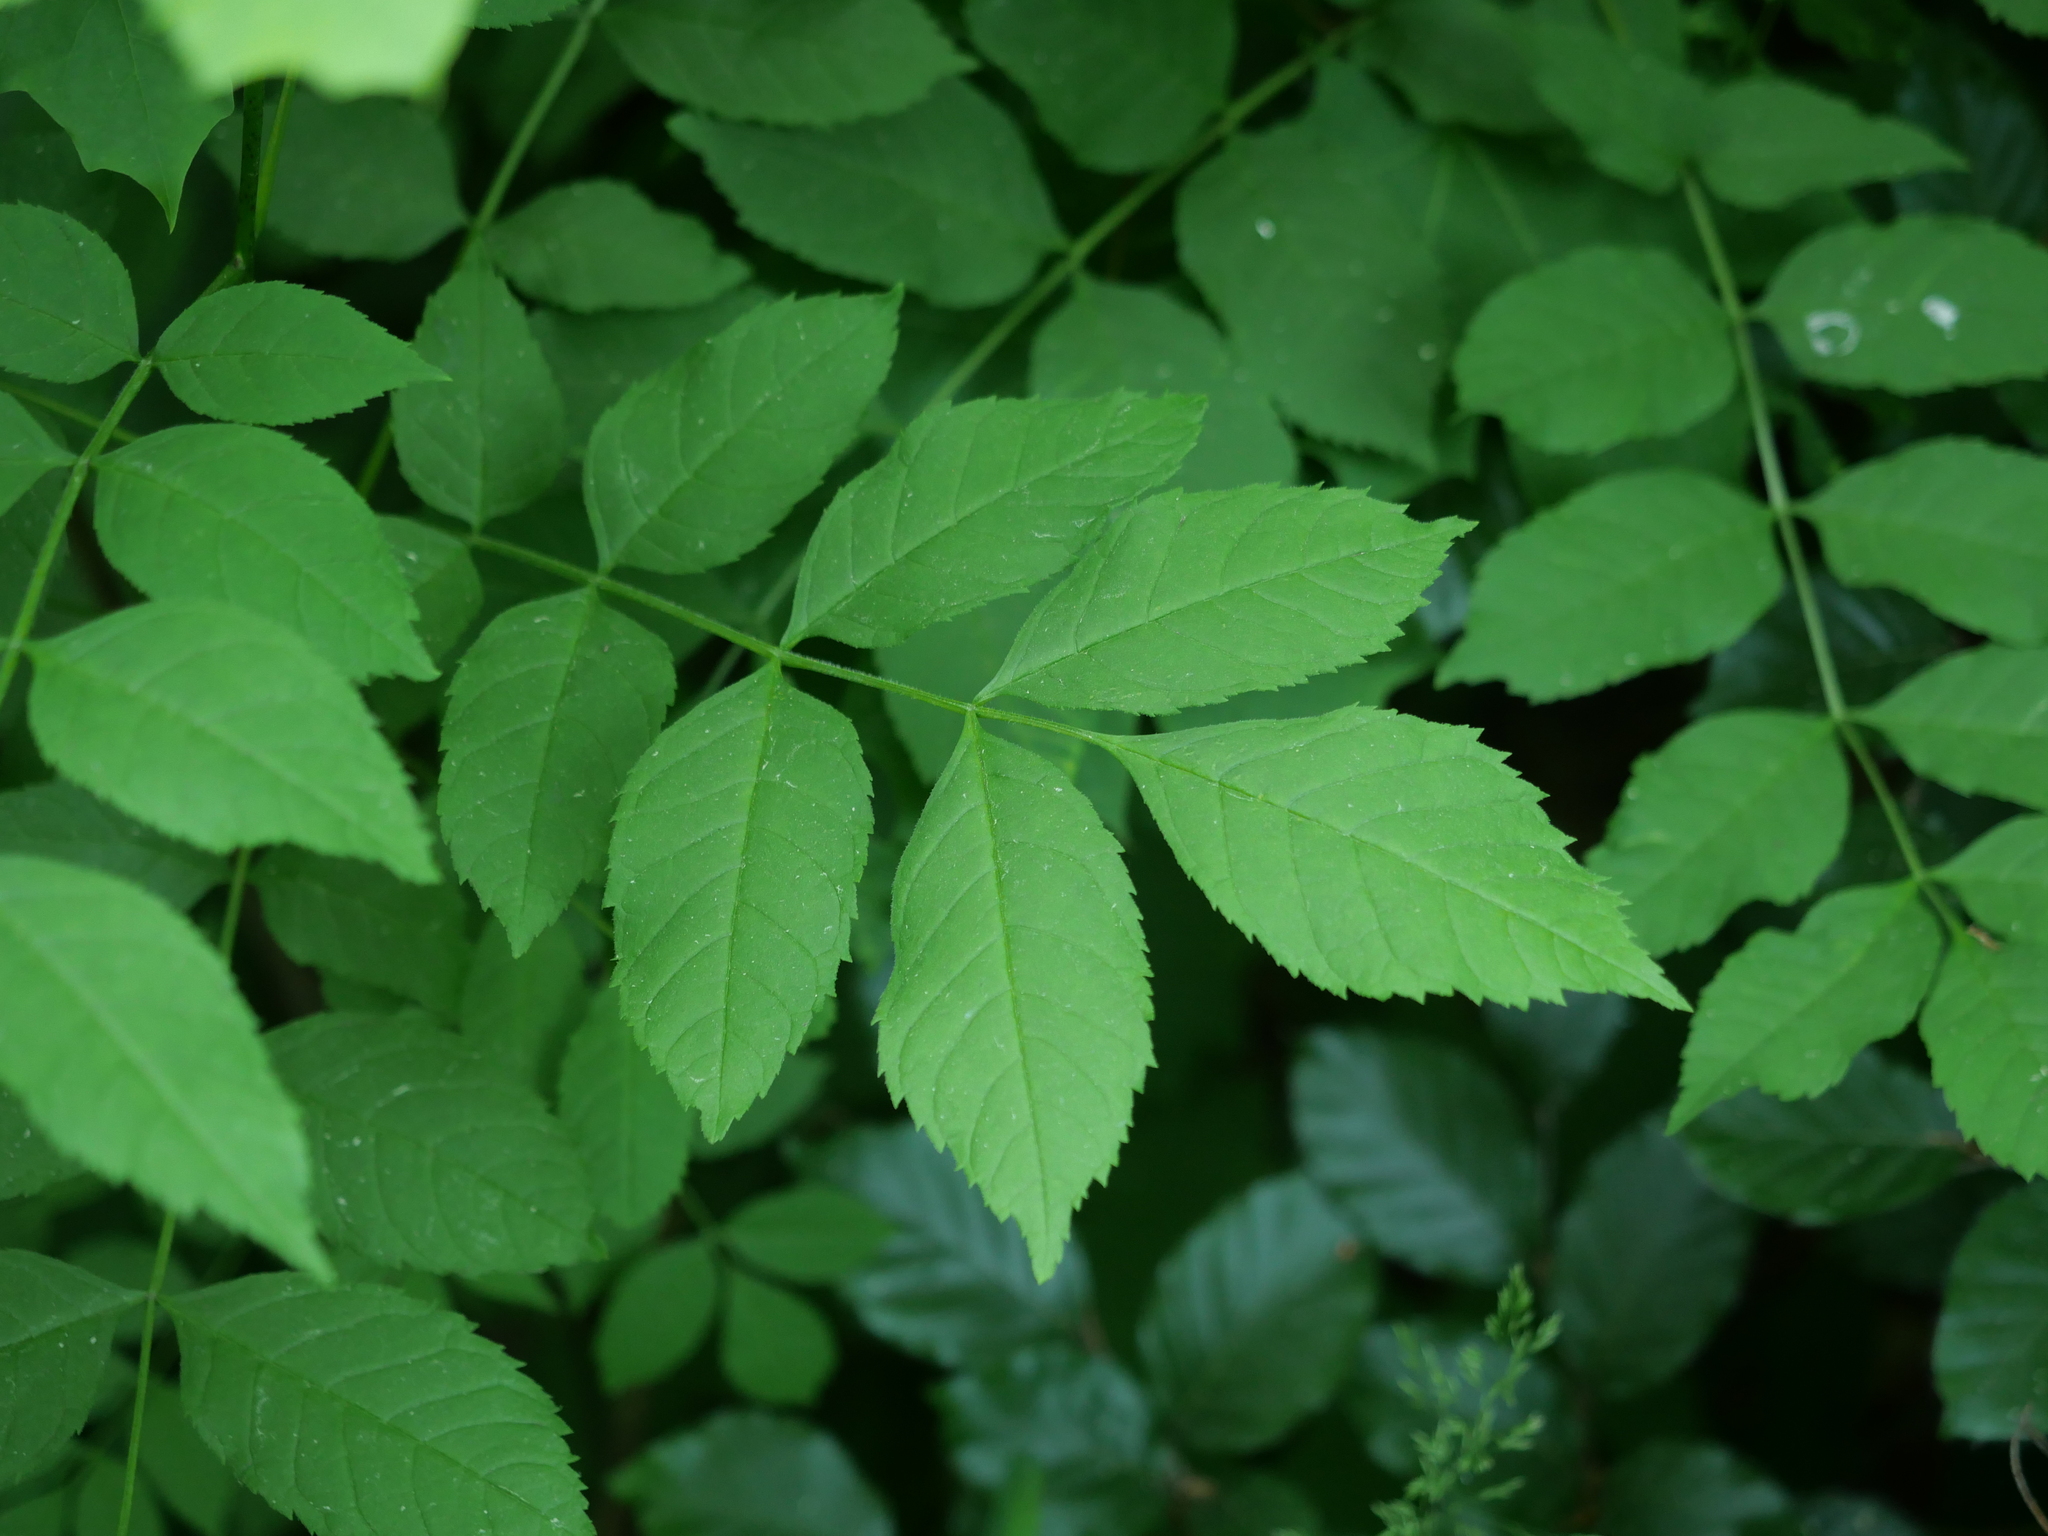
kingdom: Plantae
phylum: Tracheophyta
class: Magnoliopsida
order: Lamiales
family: Oleaceae
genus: Fraxinus
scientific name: Fraxinus excelsior
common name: European ash
